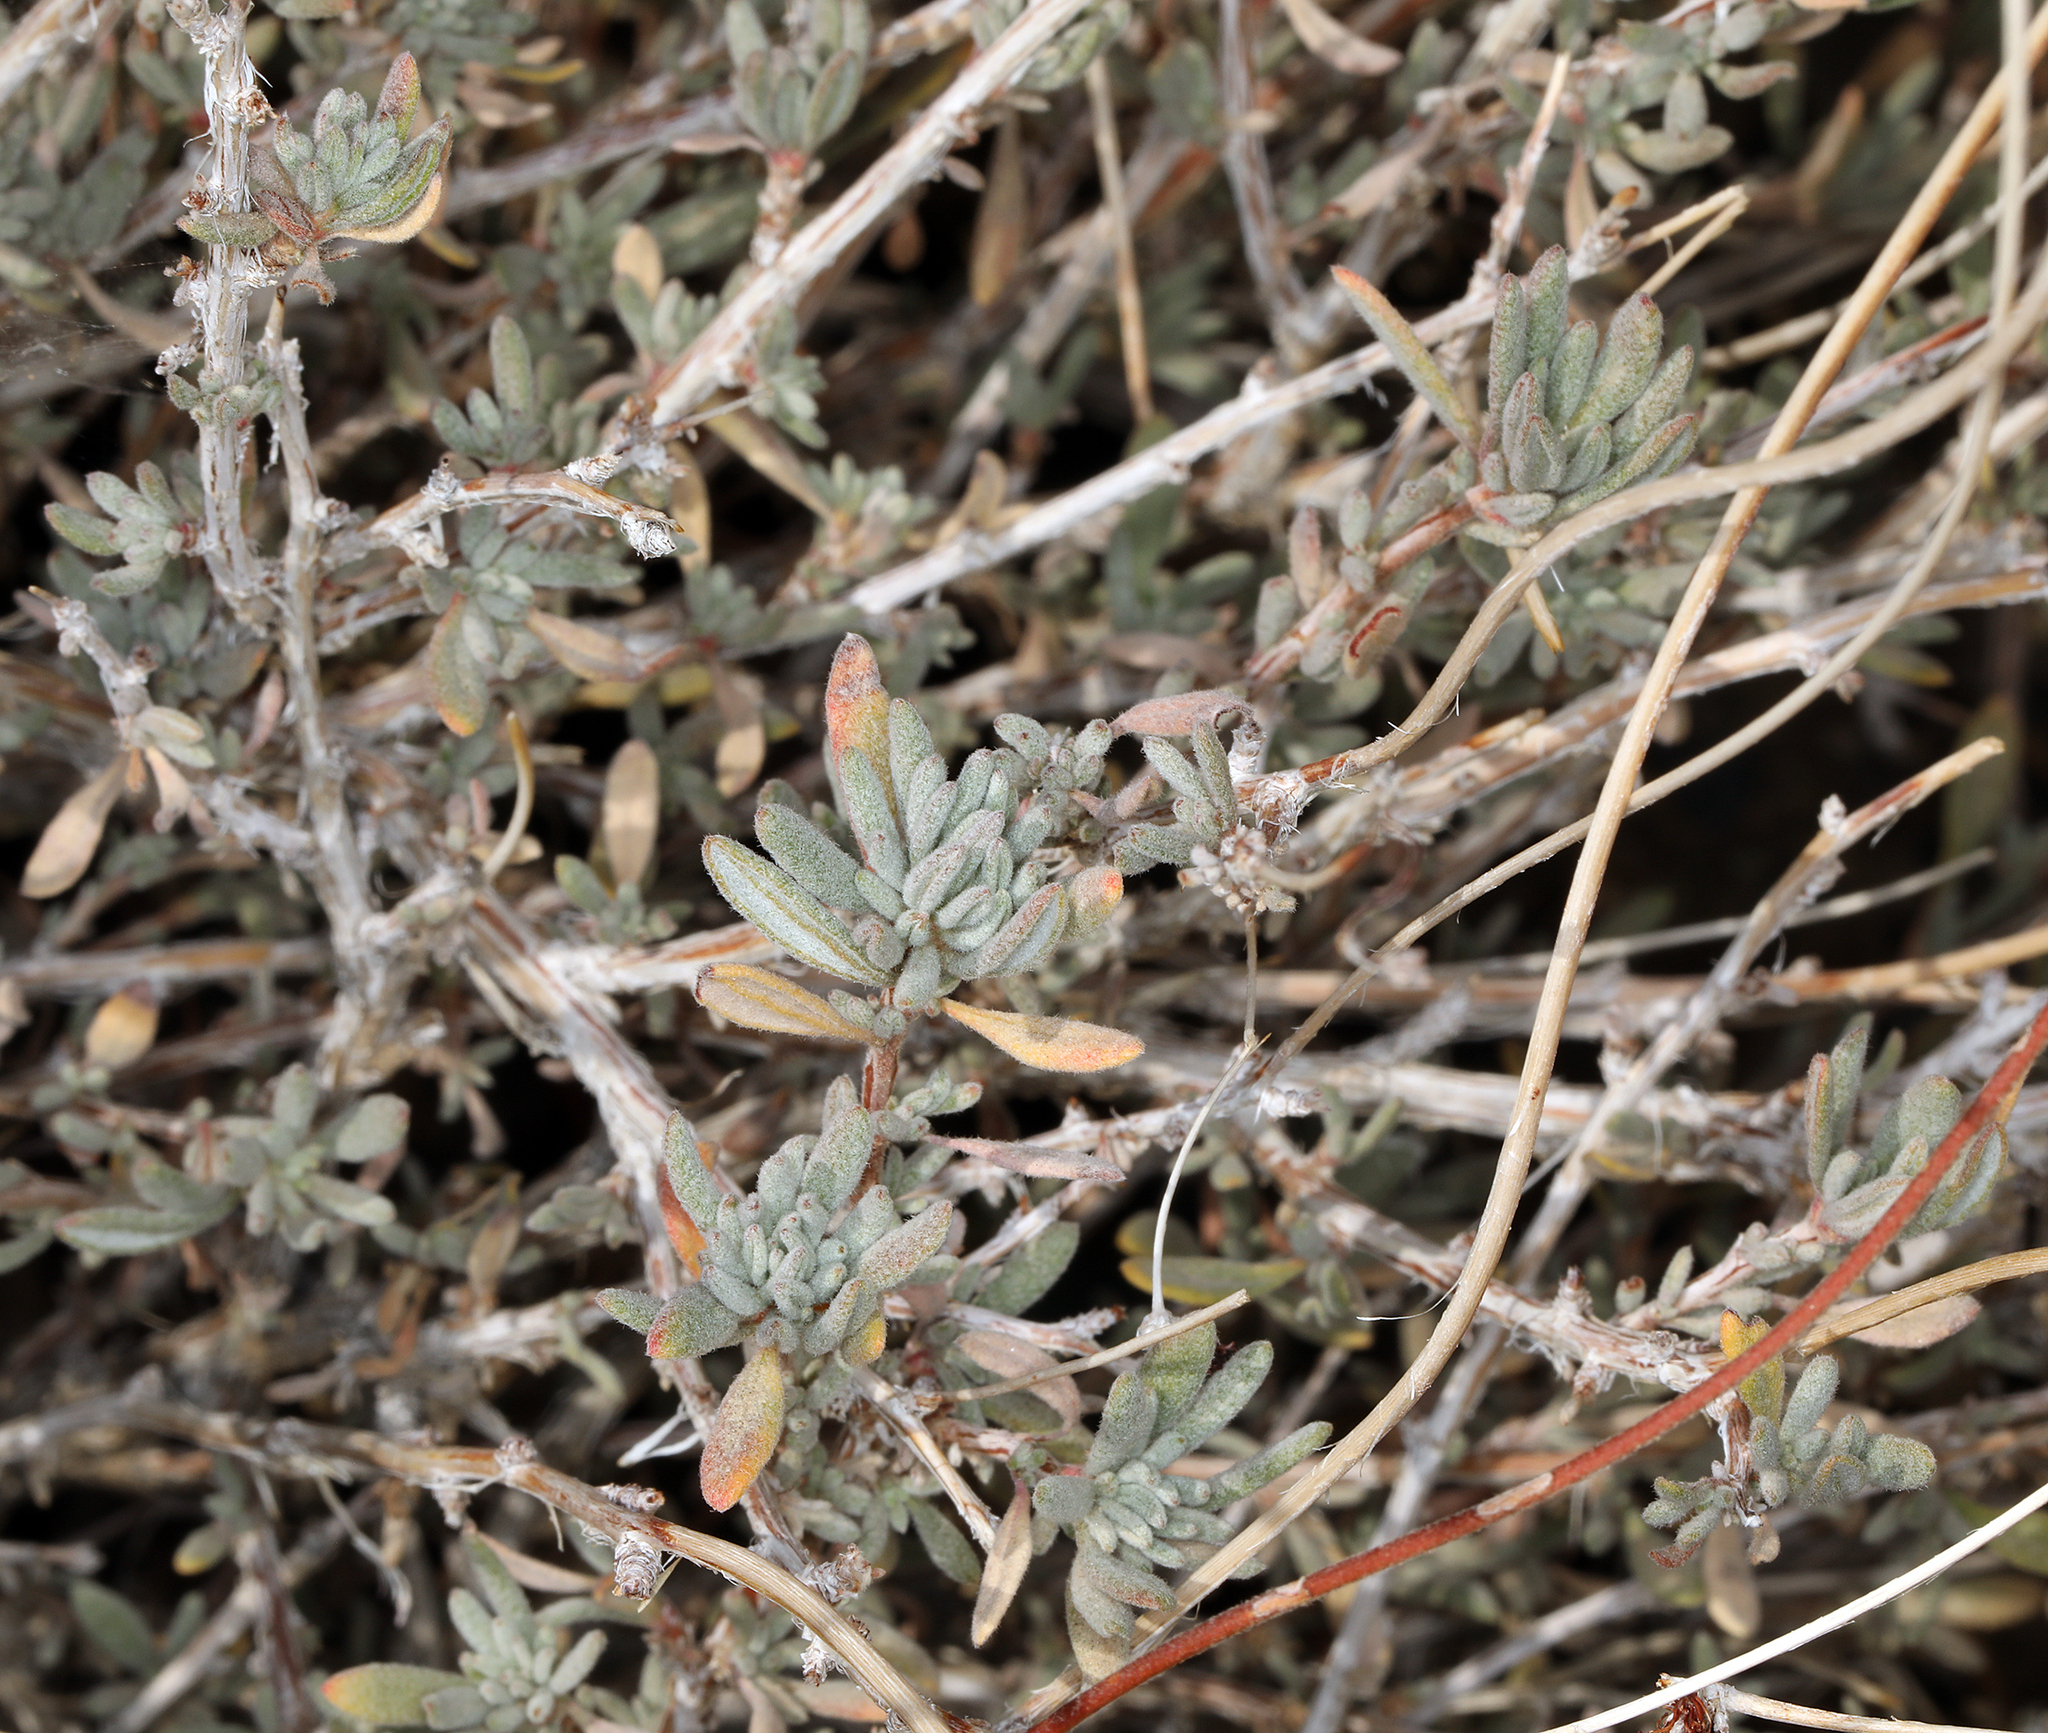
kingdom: Plantae
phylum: Tracheophyta
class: Magnoliopsida
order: Caryophyllales
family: Polygonaceae
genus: Eriogonum
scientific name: Eriogonum fasciculatum
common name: California wild buckwheat
